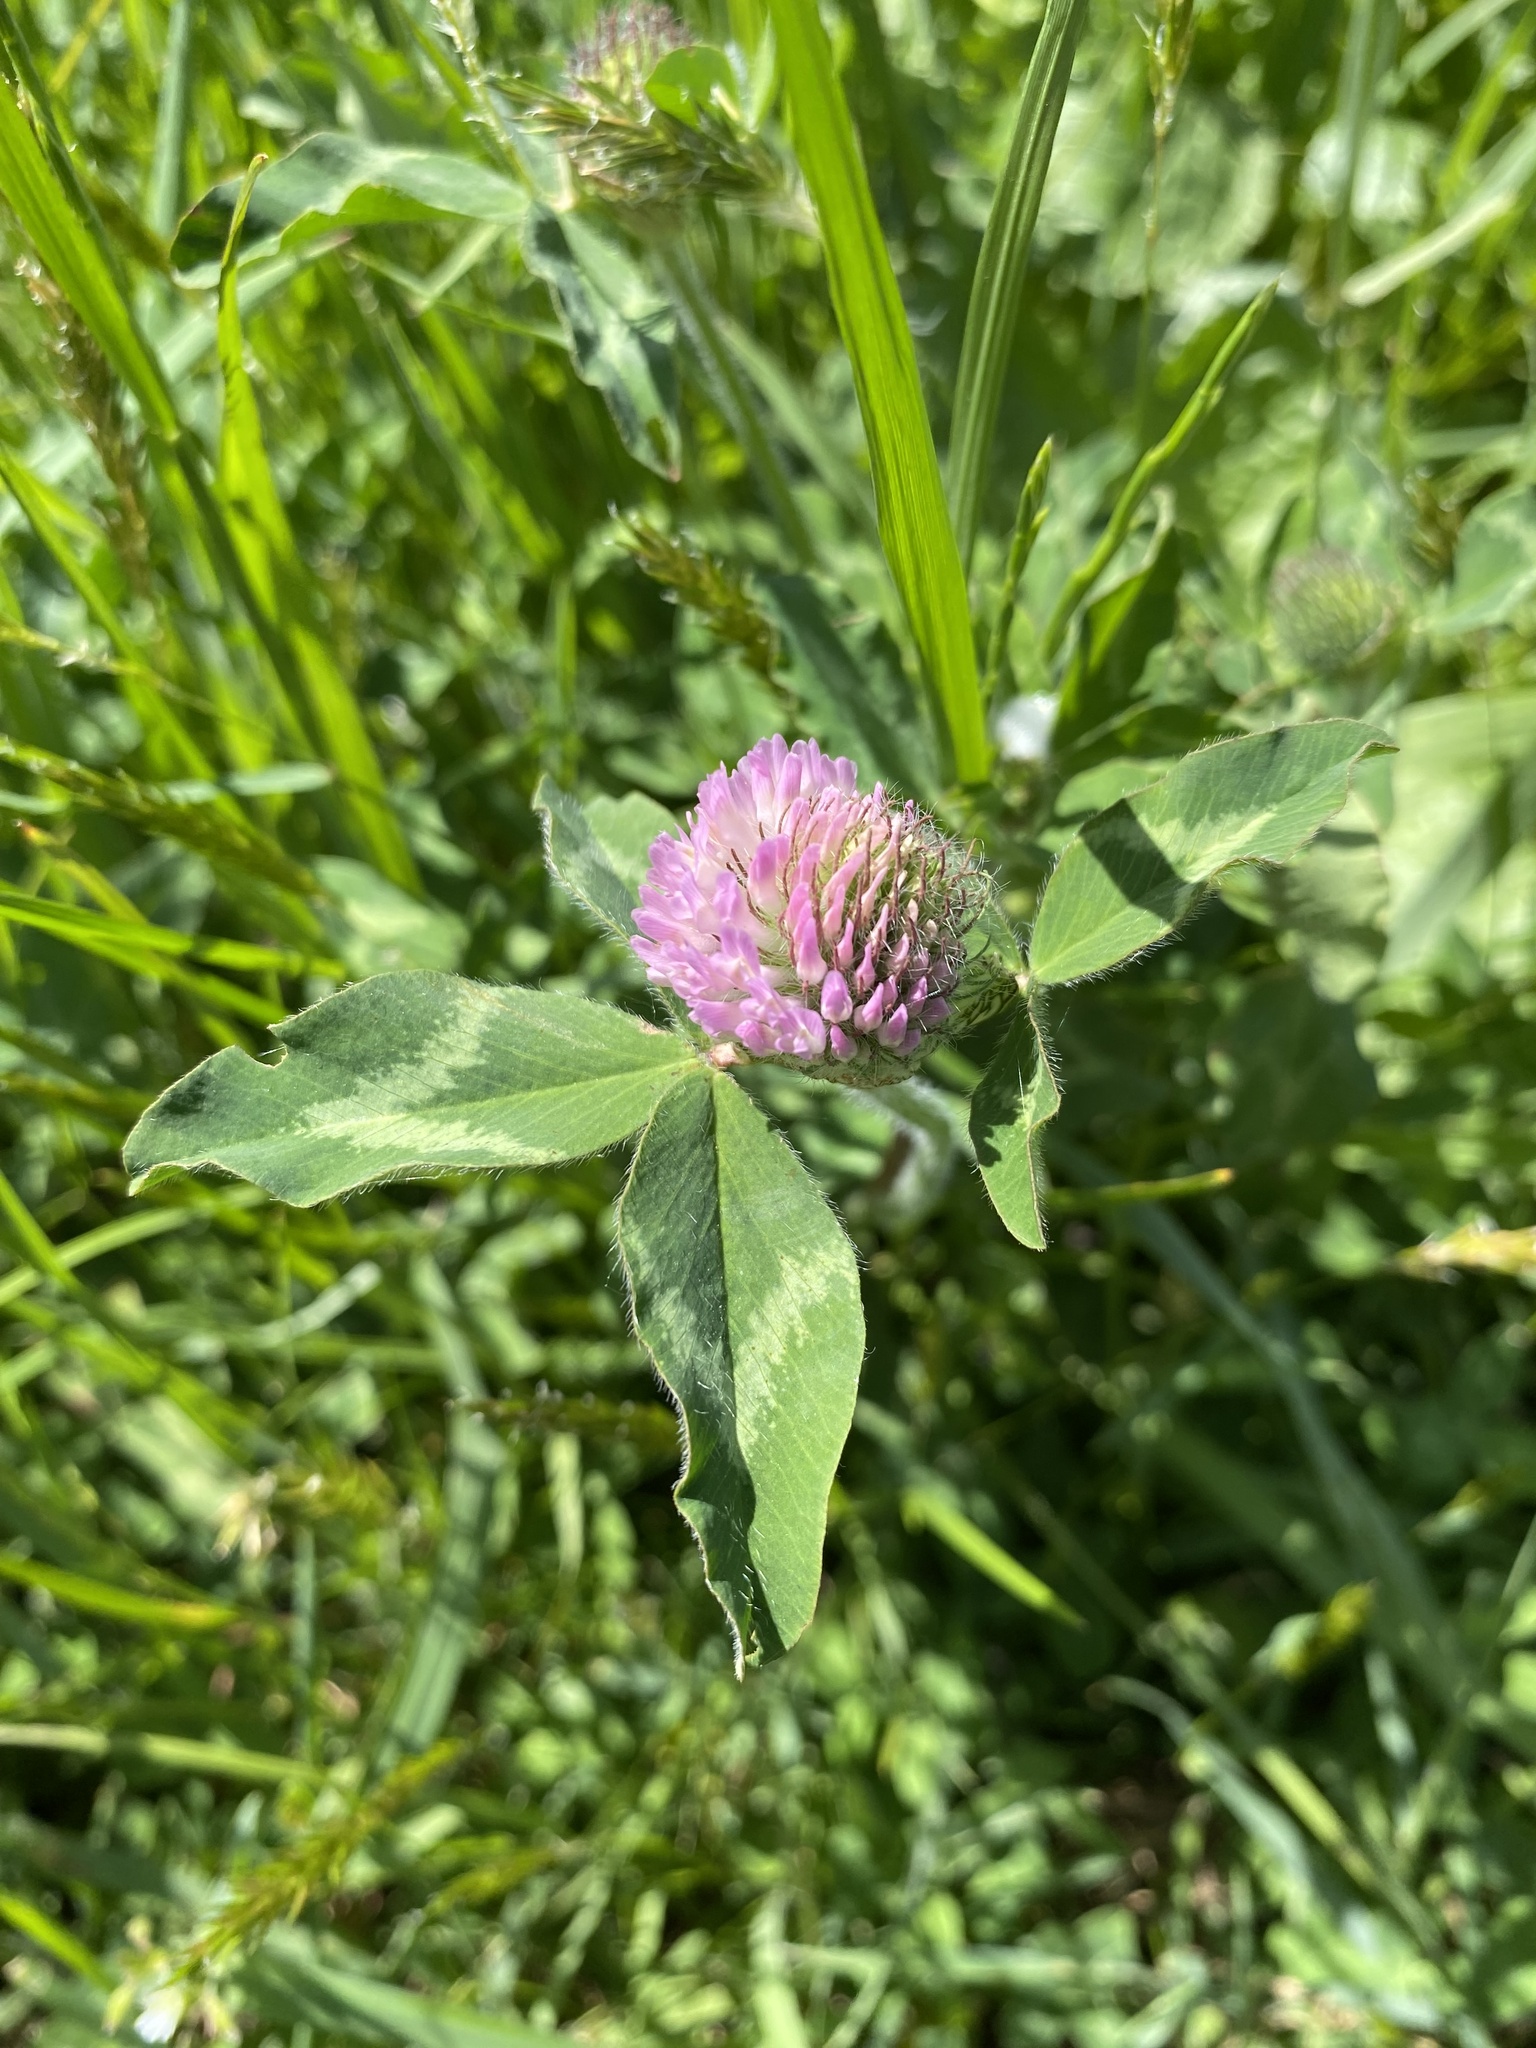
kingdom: Plantae
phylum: Tracheophyta
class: Magnoliopsida
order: Fabales
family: Fabaceae
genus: Trifolium
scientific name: Trifolium pratense
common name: Red clover
